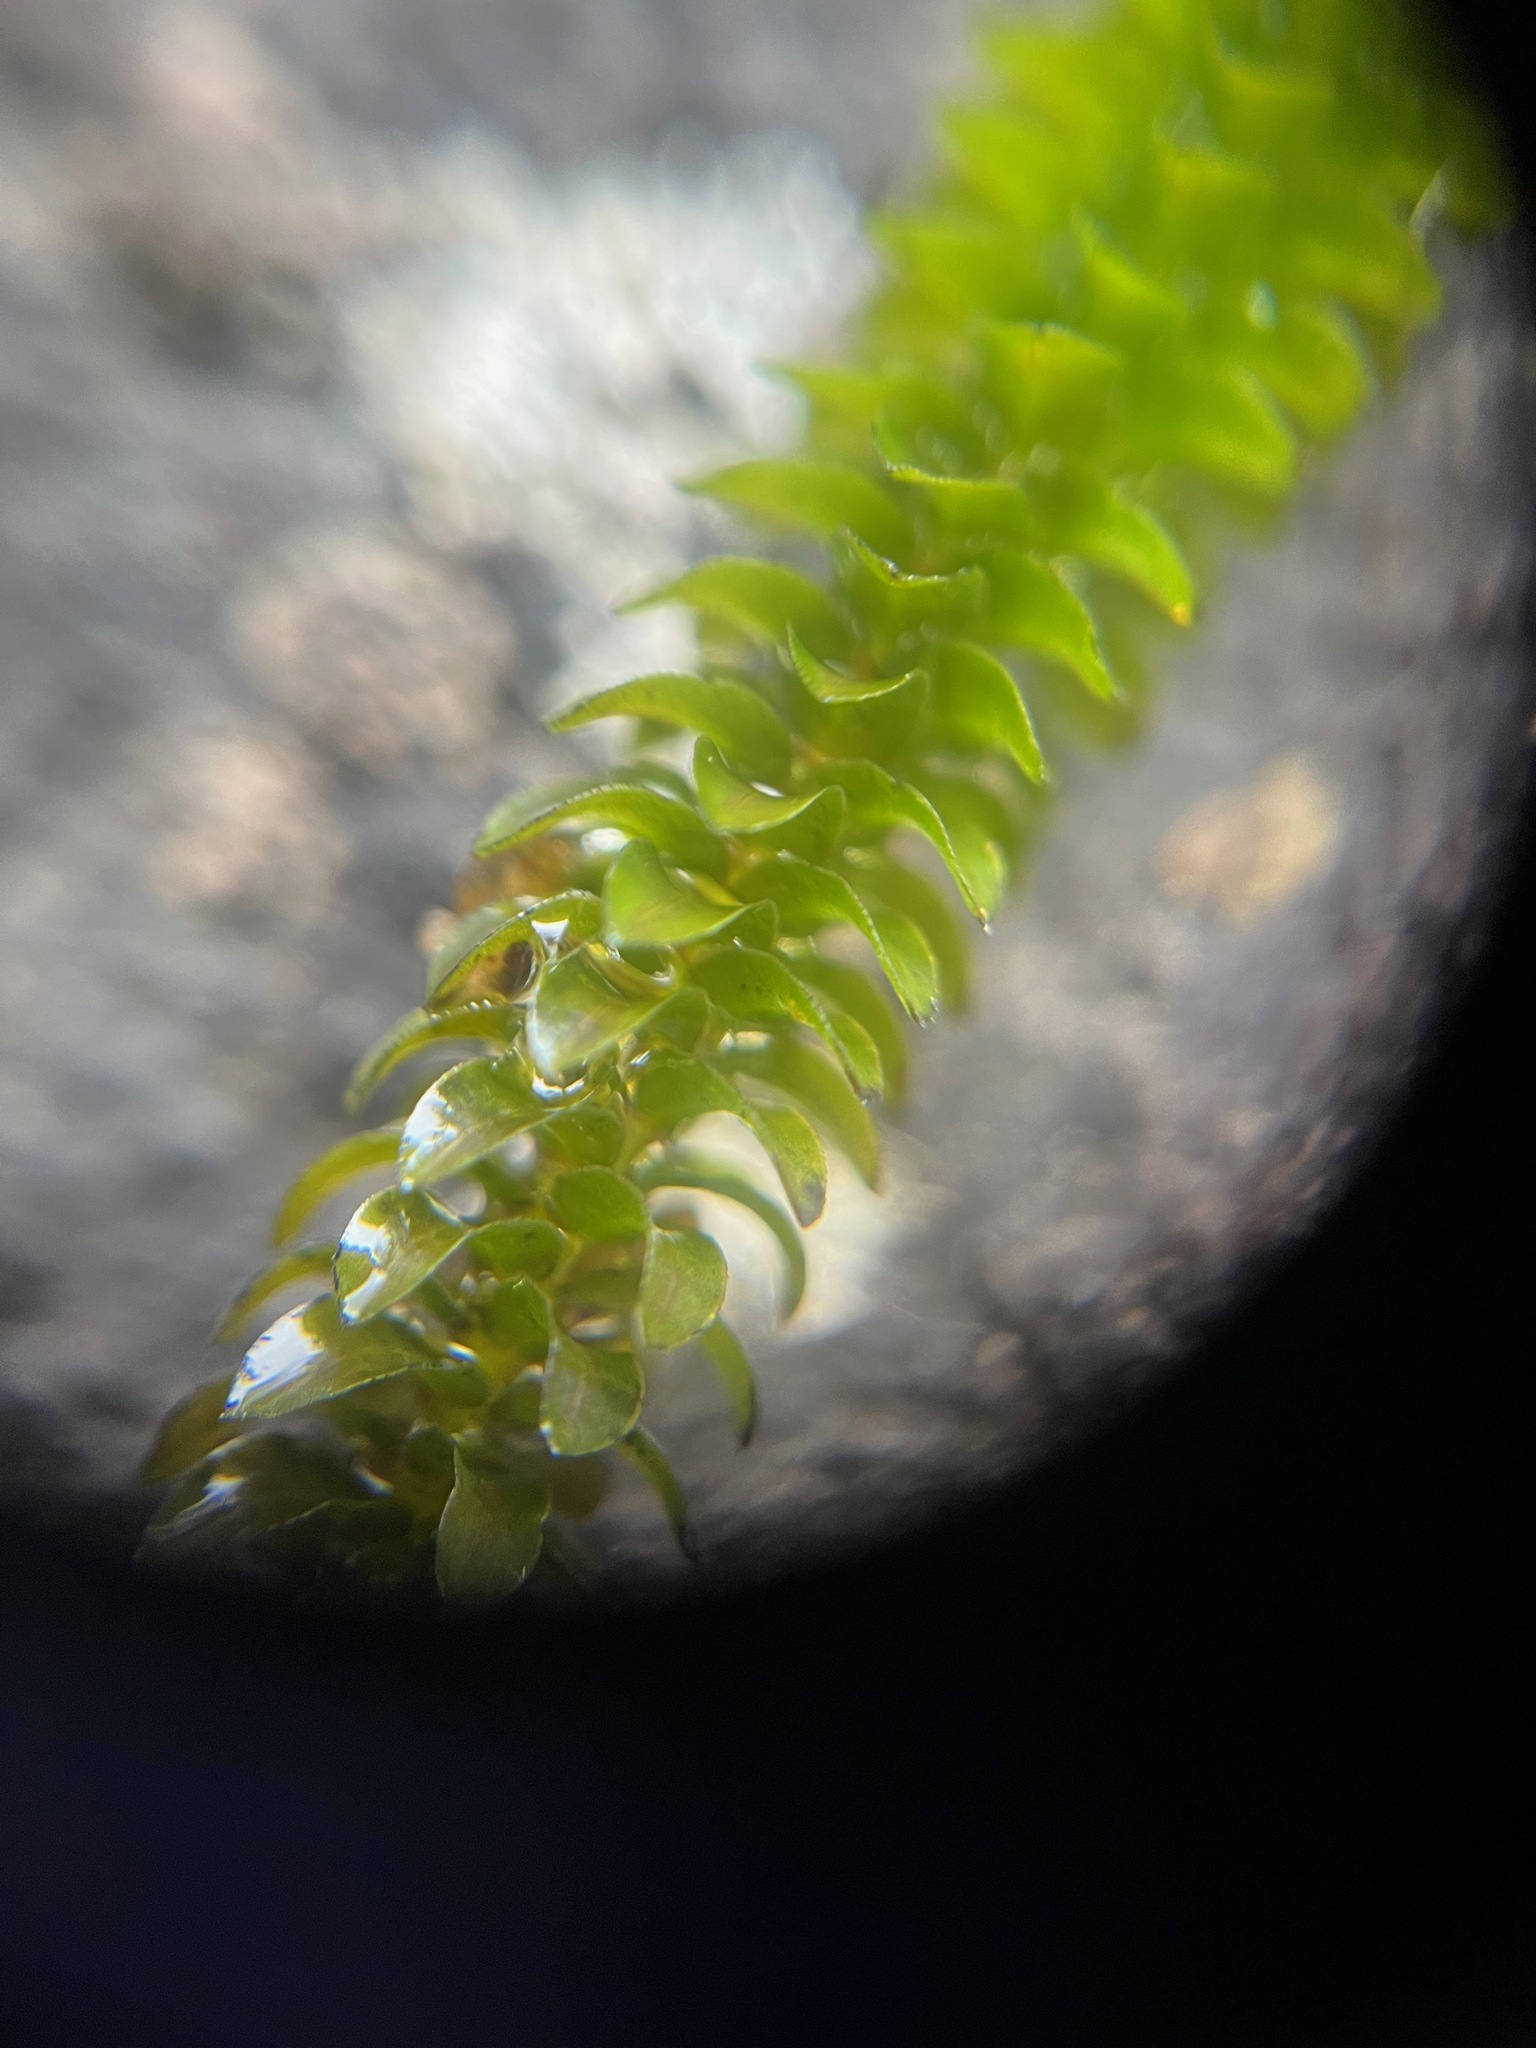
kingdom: Plantae
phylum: Tracheophyta
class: Liliopsida
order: Alismatales
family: Hydrocharitaceae
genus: Elodea
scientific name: Elodea canadensis
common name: Canadian waterweed
